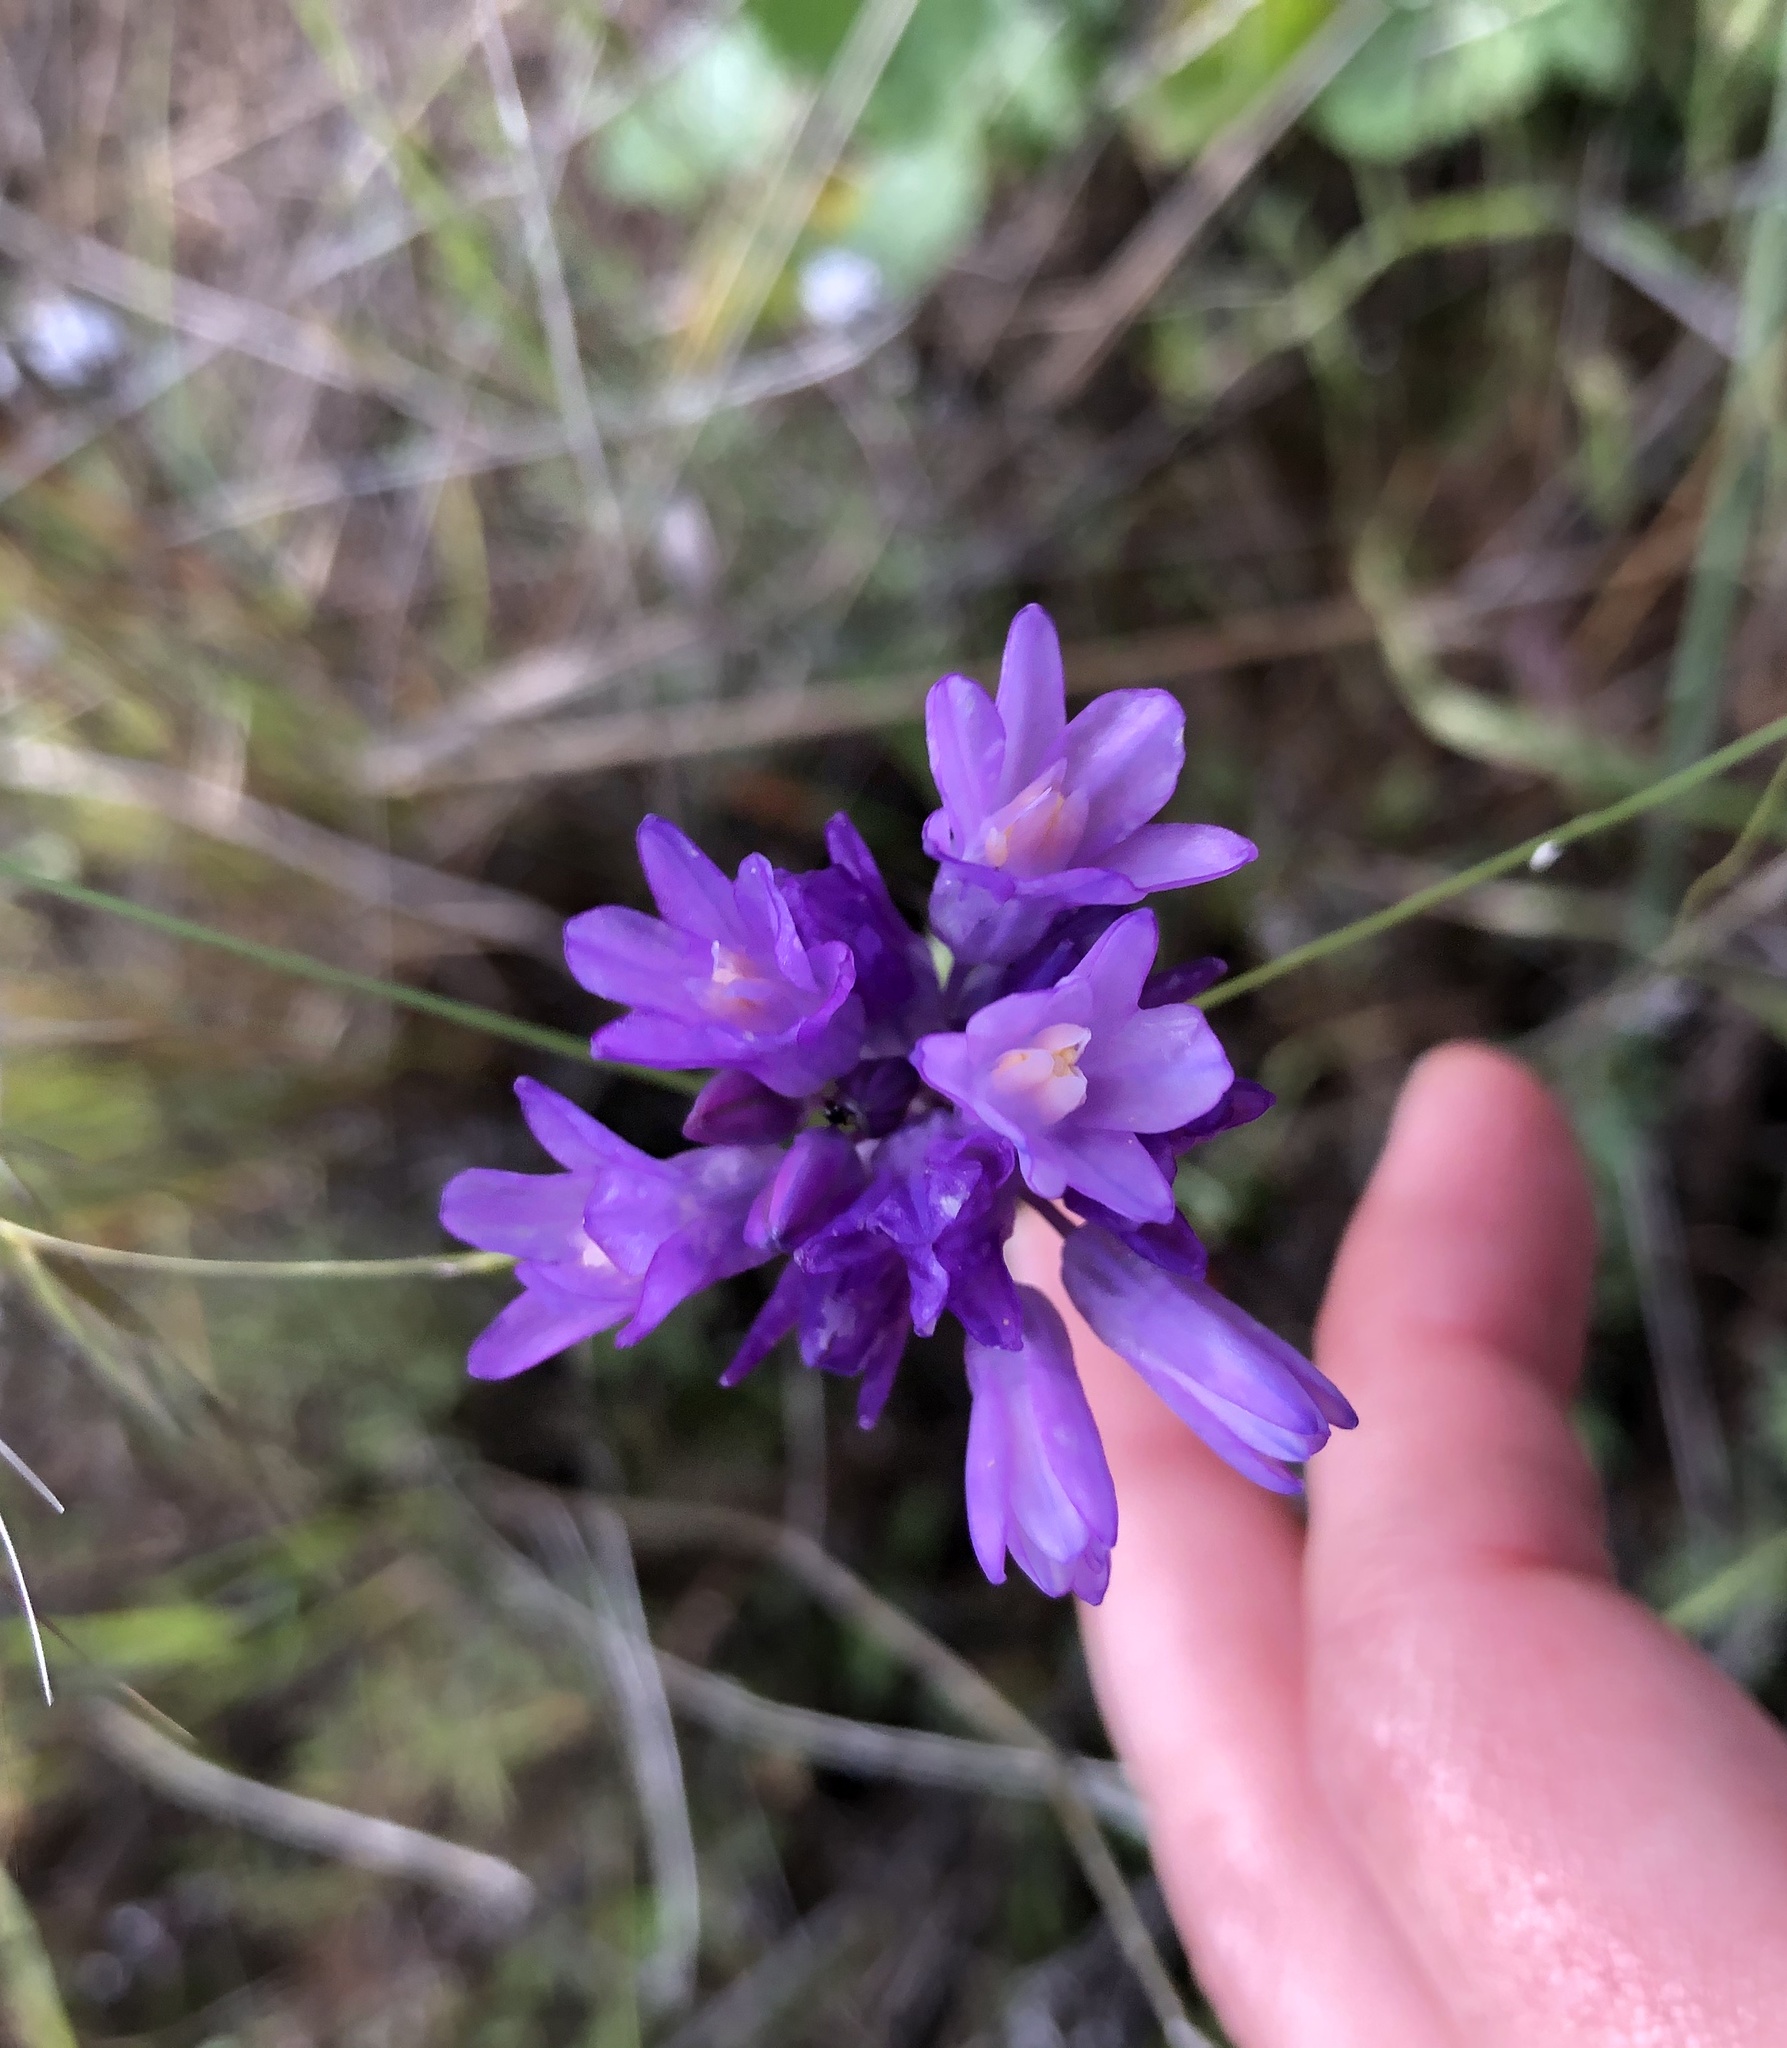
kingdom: Plantae
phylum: Tracheophyta
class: Liliopsida
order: Asparagales
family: Asparagaceae
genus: Dipterostemon
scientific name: Dipterostemon capitatus
